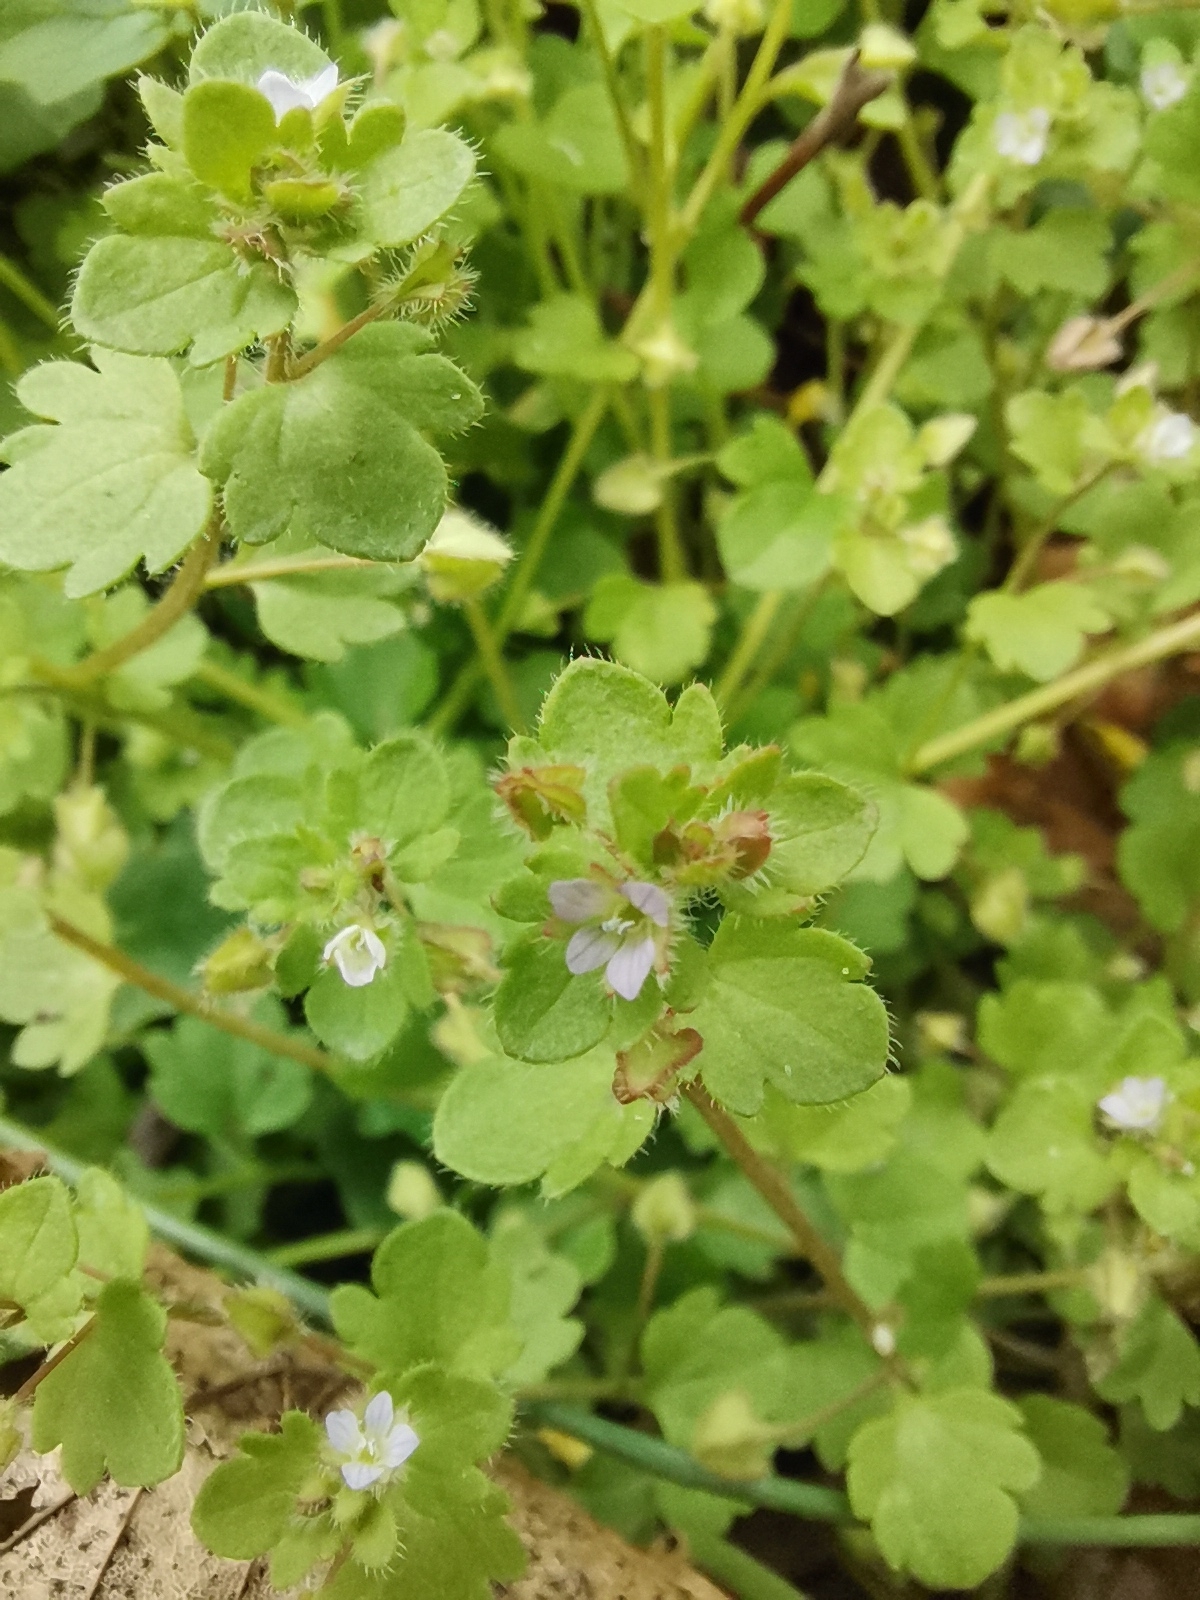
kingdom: Plantae
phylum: Tracheophyta
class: Magnoliopsida
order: Lamiales
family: Plantaginaceae
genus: Veronica
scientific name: Veronica sublobata
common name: False ivy-leaved speedwell
